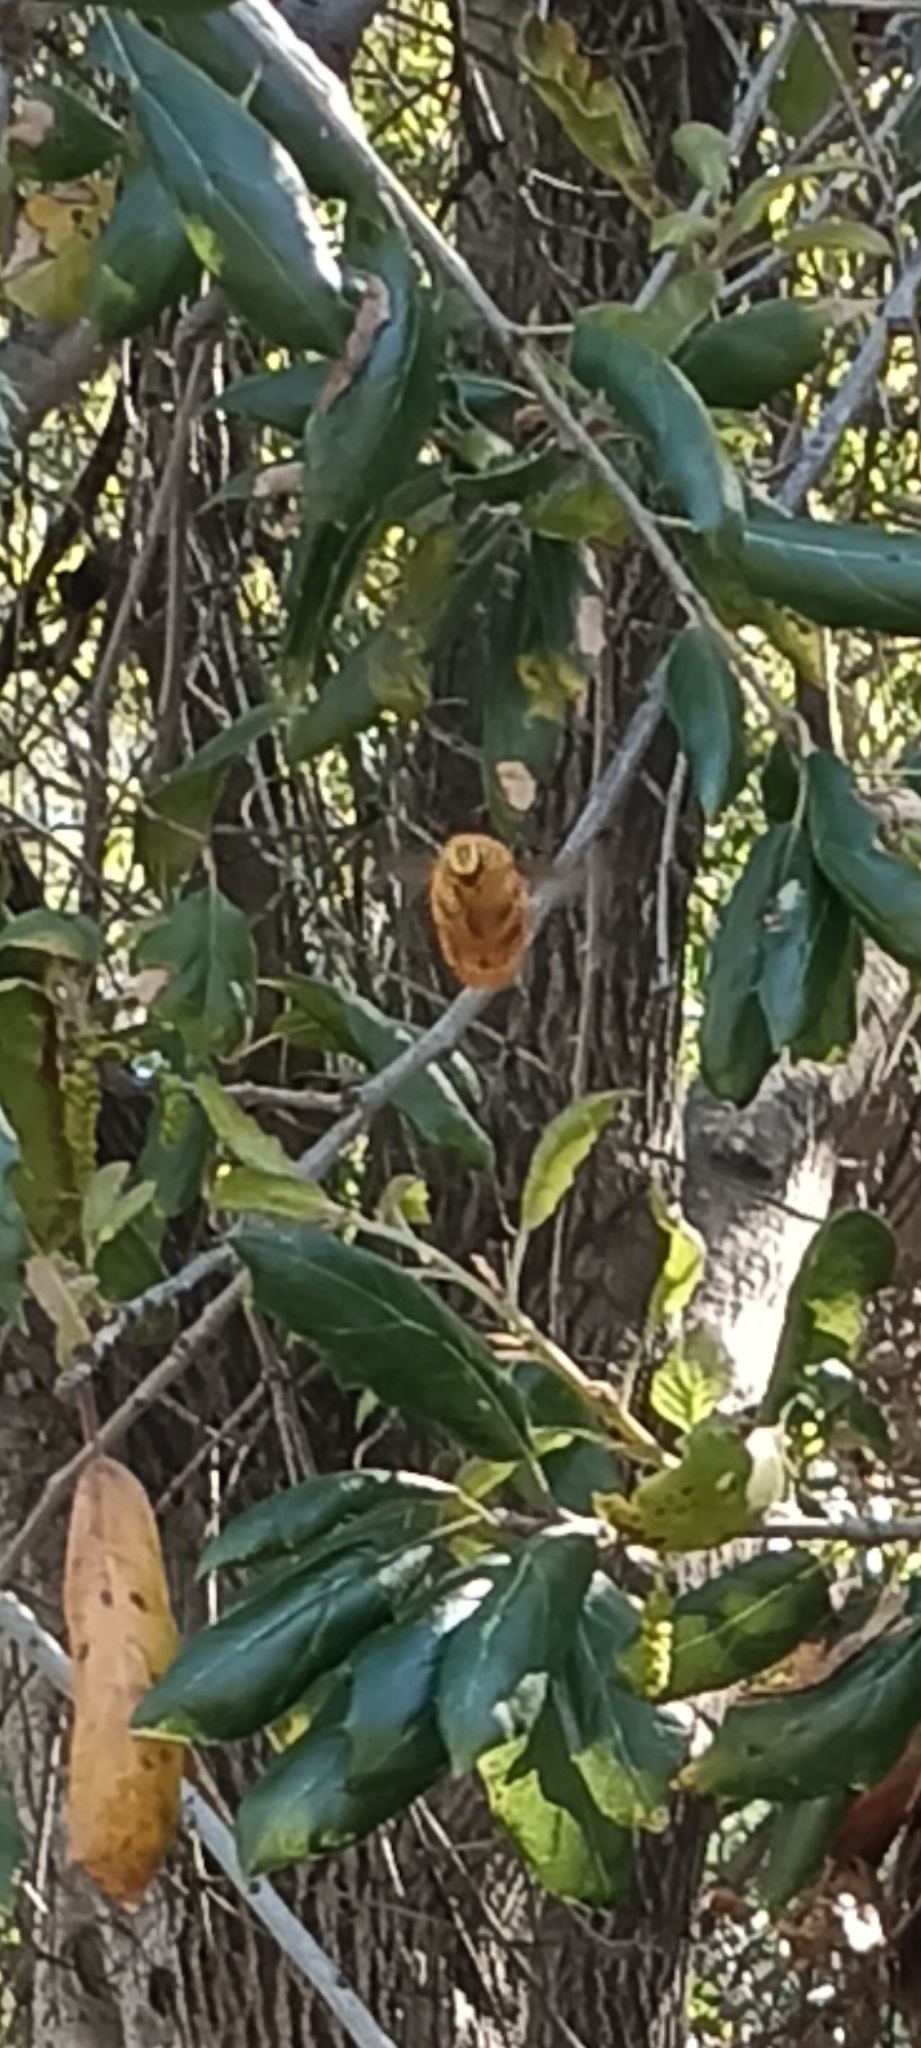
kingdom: Animalia
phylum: Arthropoda
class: Insecta
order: Hymenoptera
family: Apidae
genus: Xylocopa
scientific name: Xylocopa sonorina
